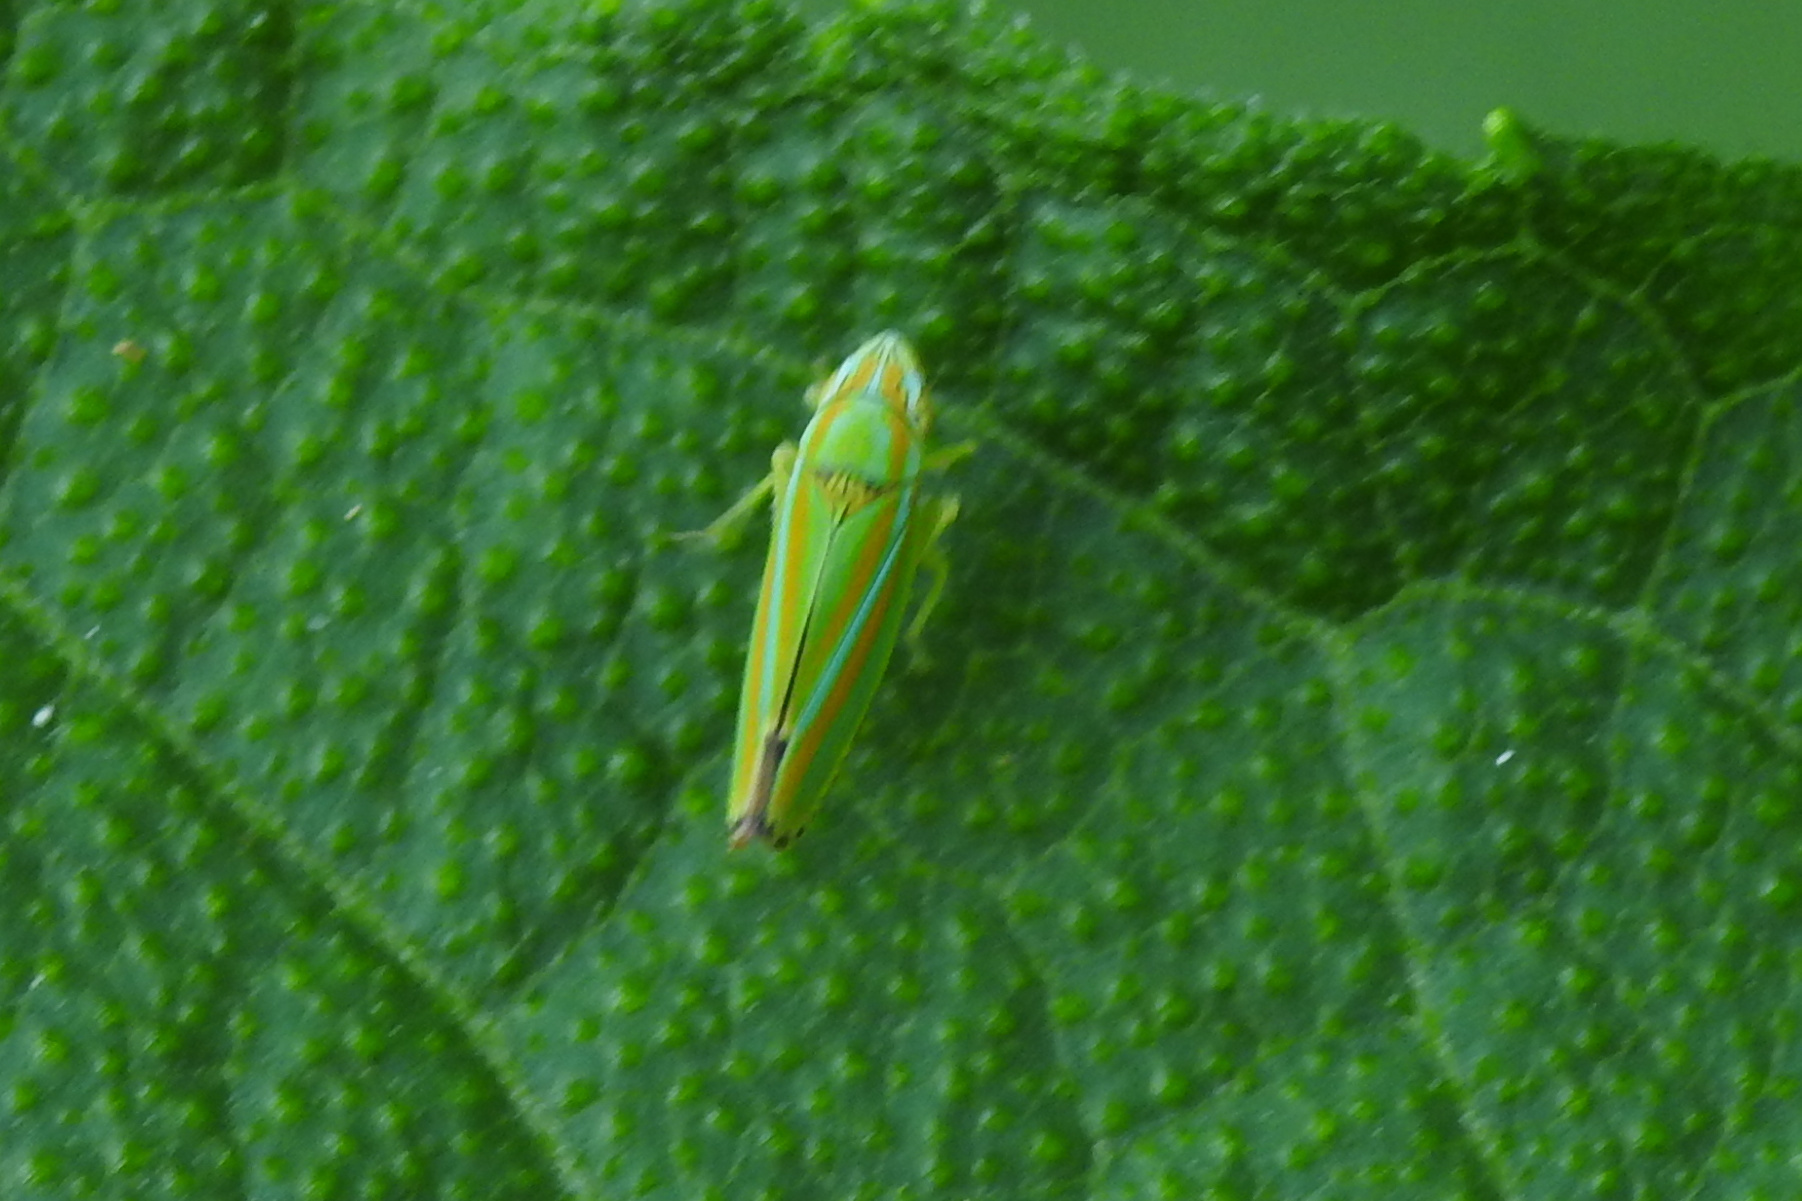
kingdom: Animalia
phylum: Arthropoda
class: Insecta
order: Hemiptera
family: Cicadellidae
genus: Graphocephala
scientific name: Graphocephala versuta
